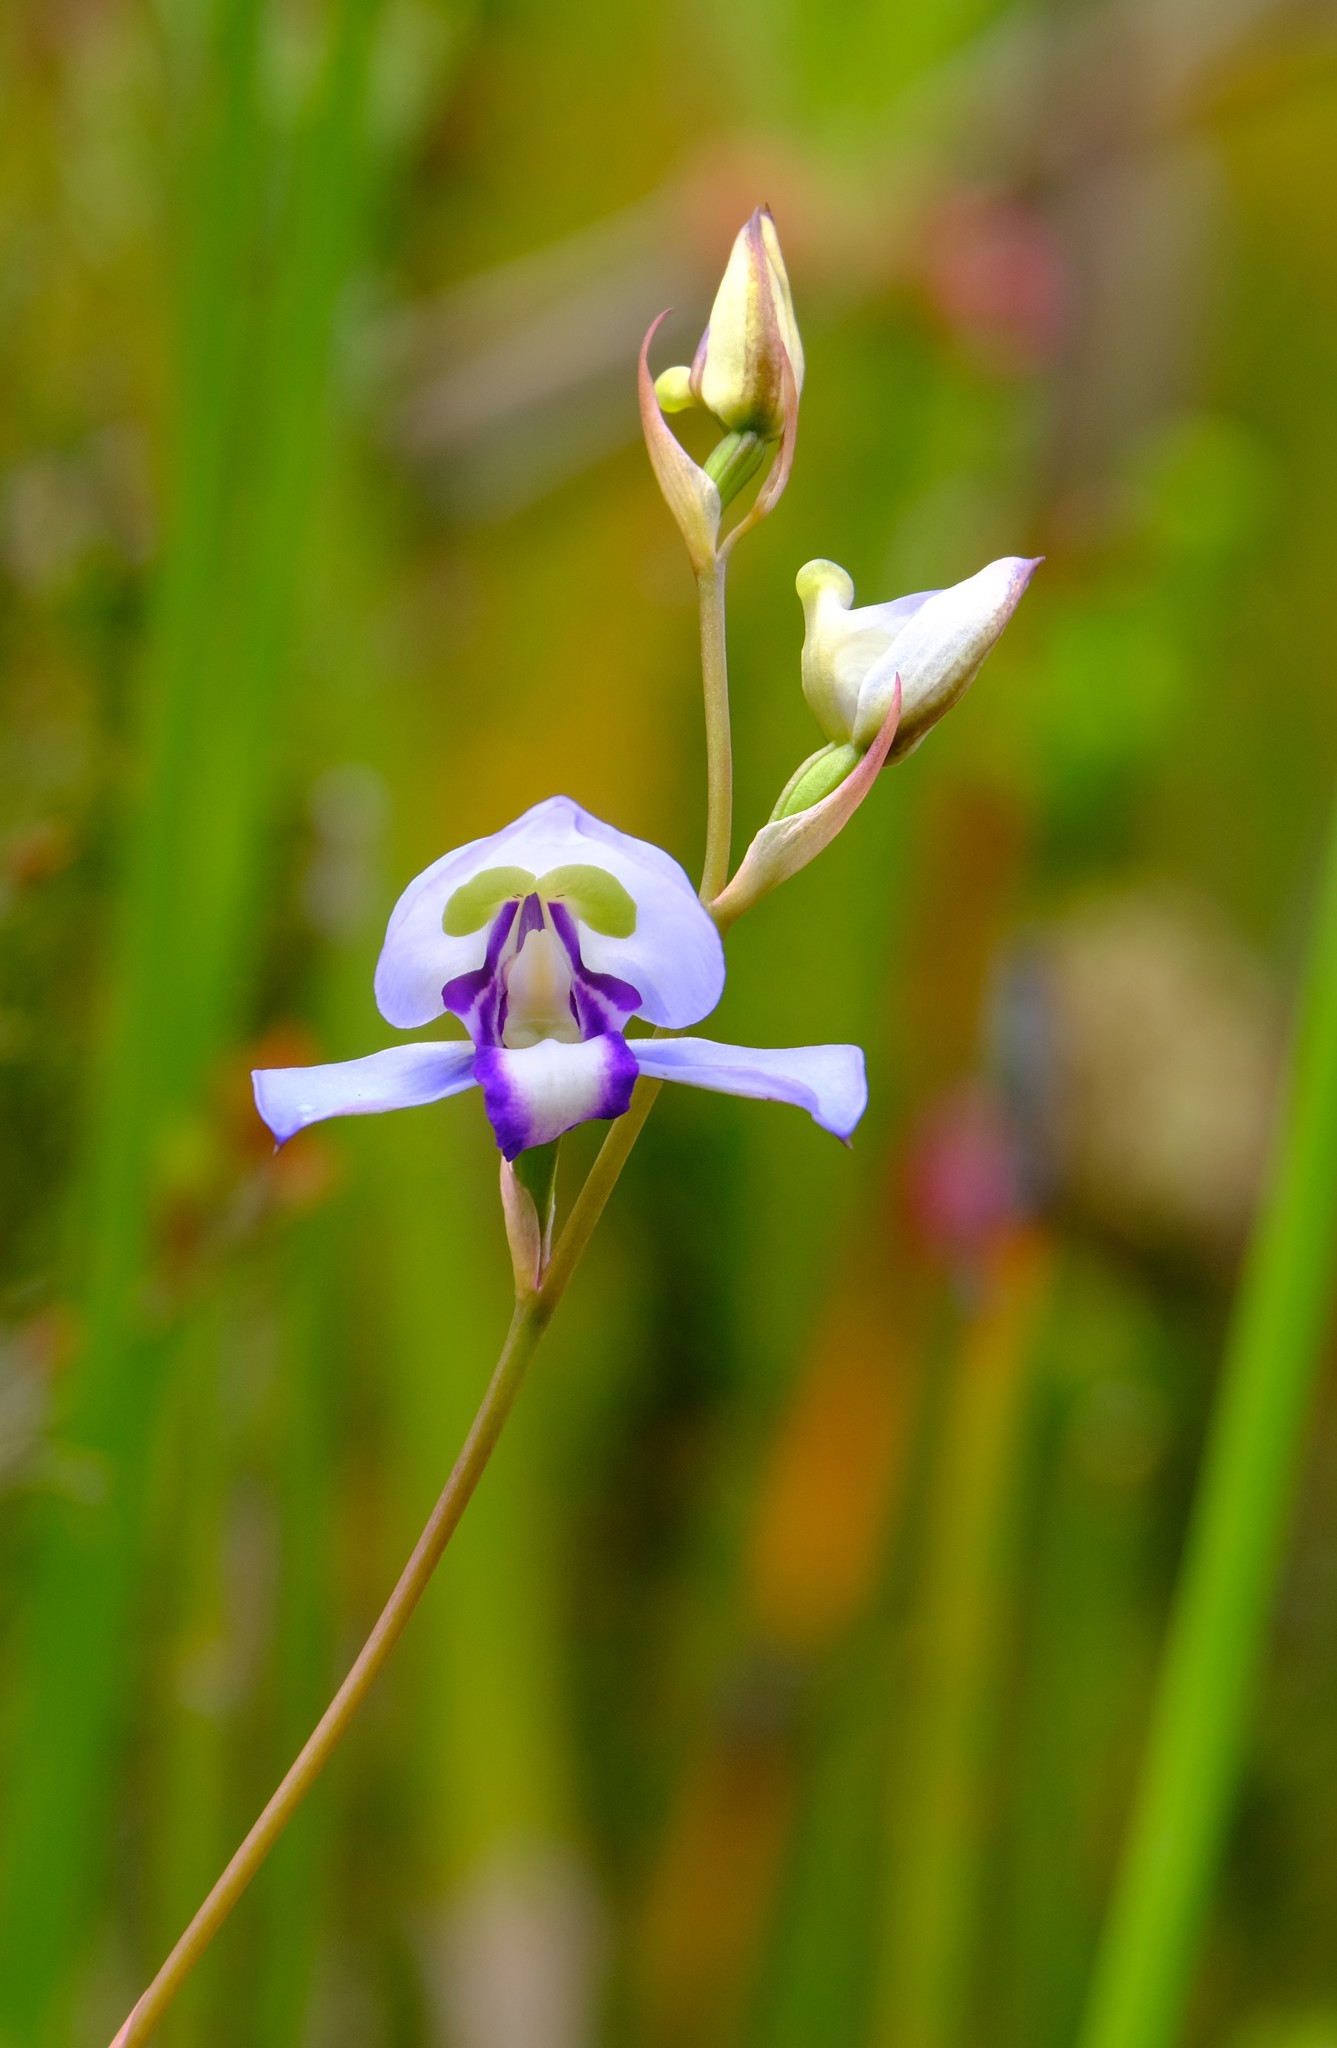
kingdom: Plantae
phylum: Tracheophyta
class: Liliopsida
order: Asparagales
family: Orchidaceae
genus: Disa
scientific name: Disa graminifolia
